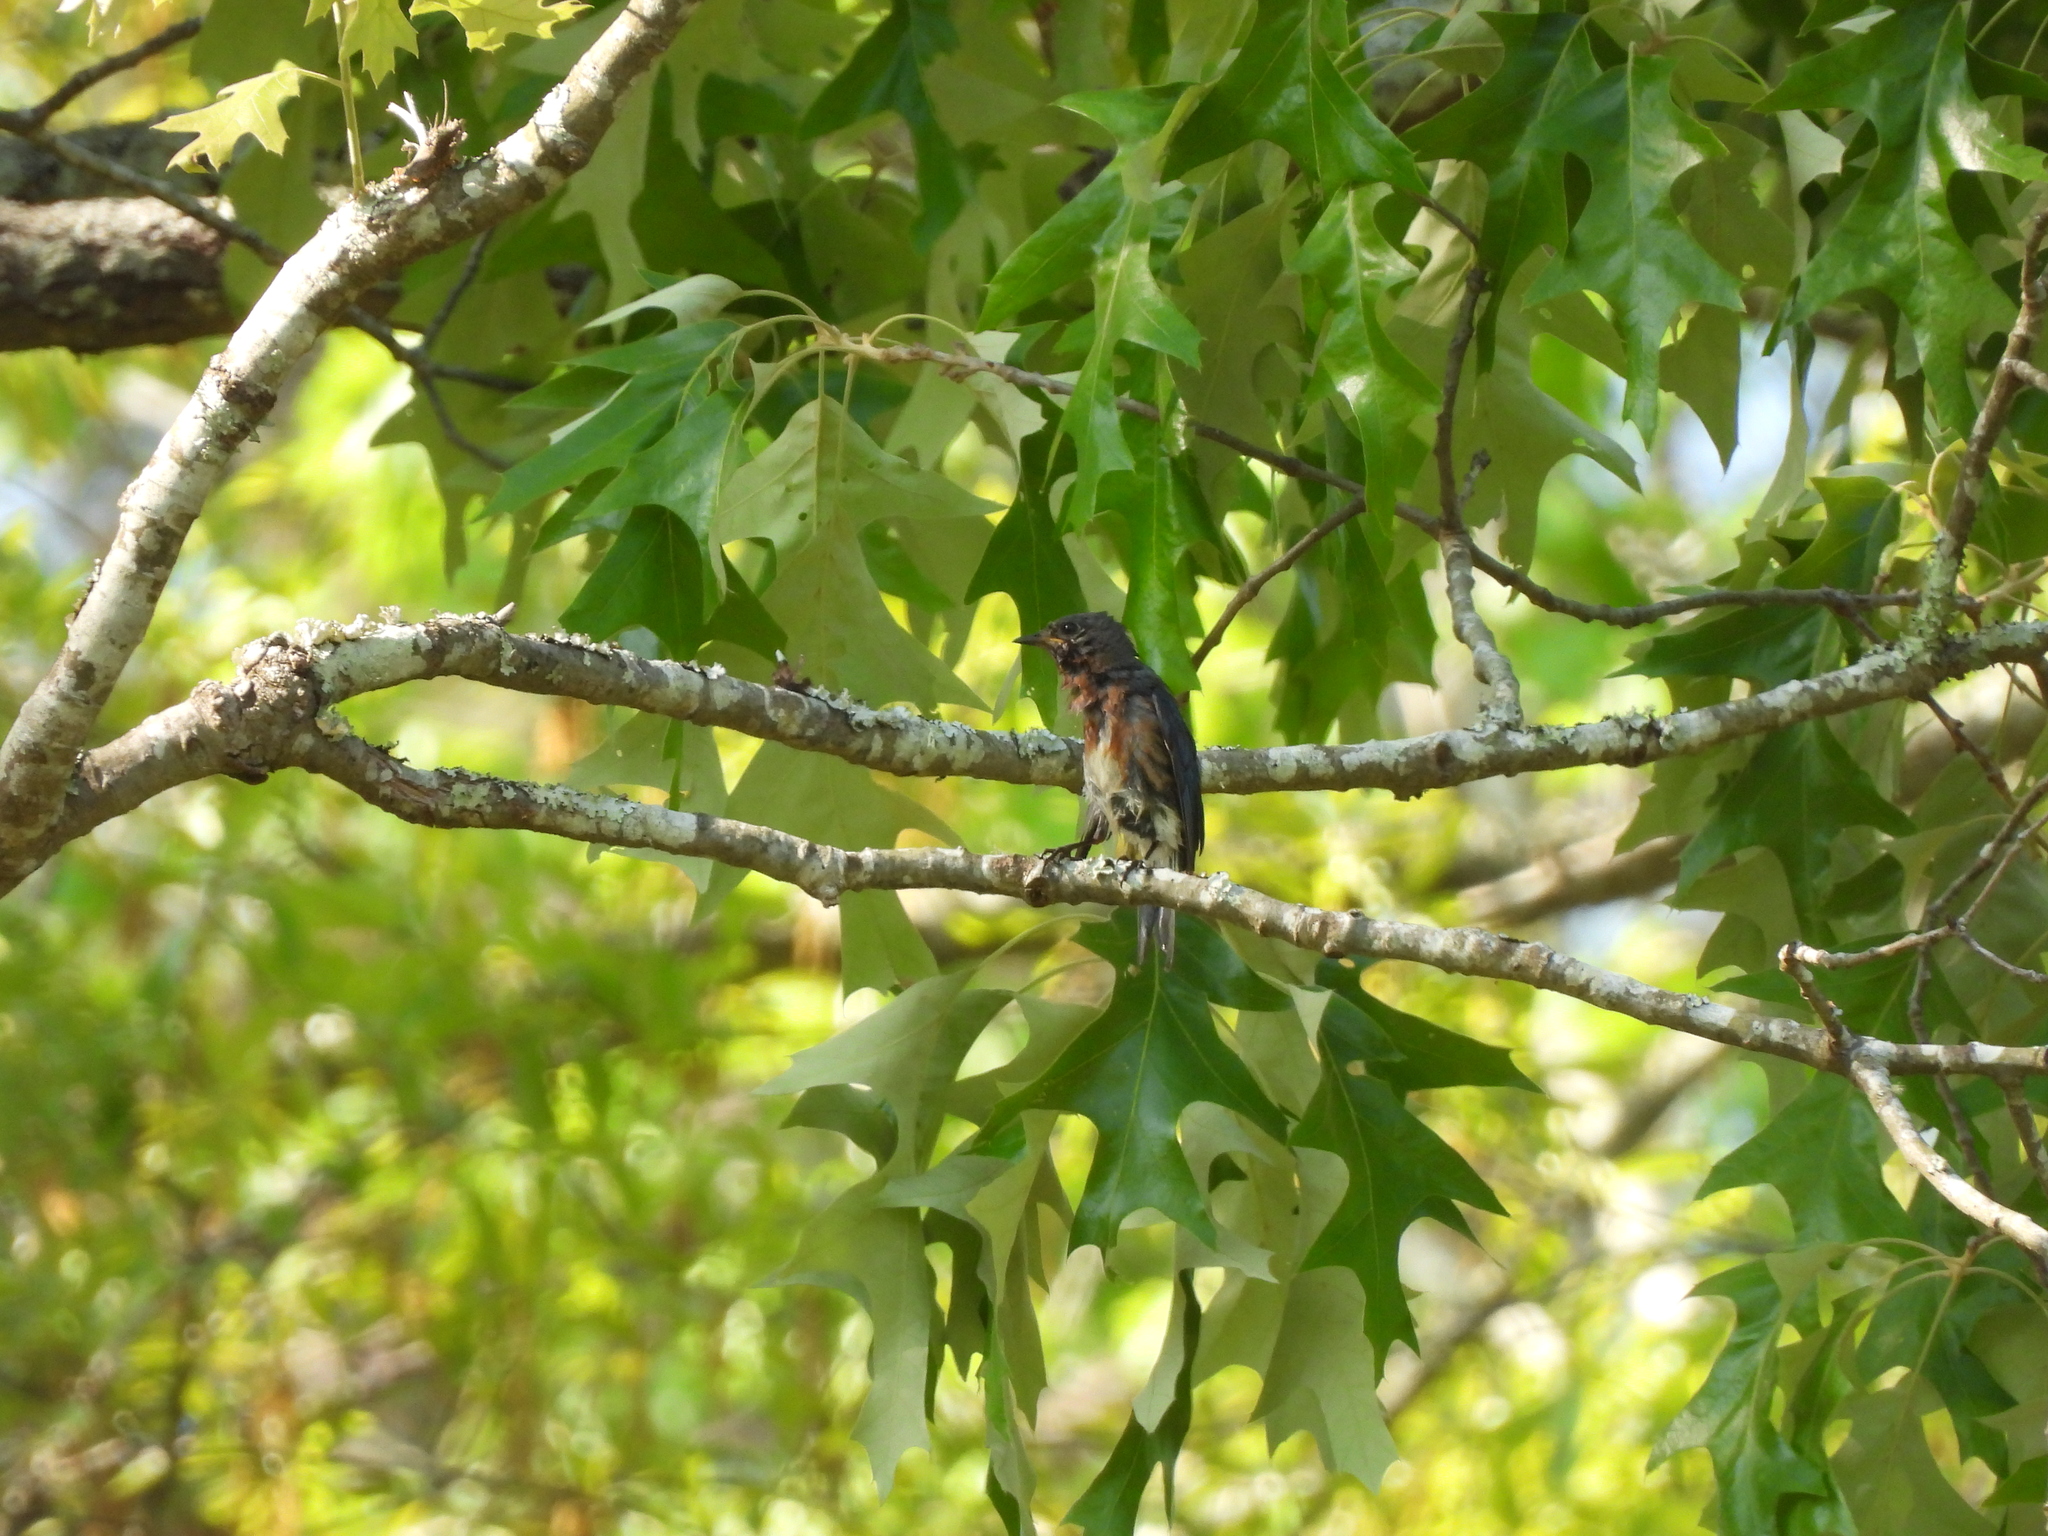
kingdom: Animalia
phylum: Chordata
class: Aves
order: Passeriformes
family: Turdidae
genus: Sialia
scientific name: Sialia sialis
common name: Eastern bluebird
